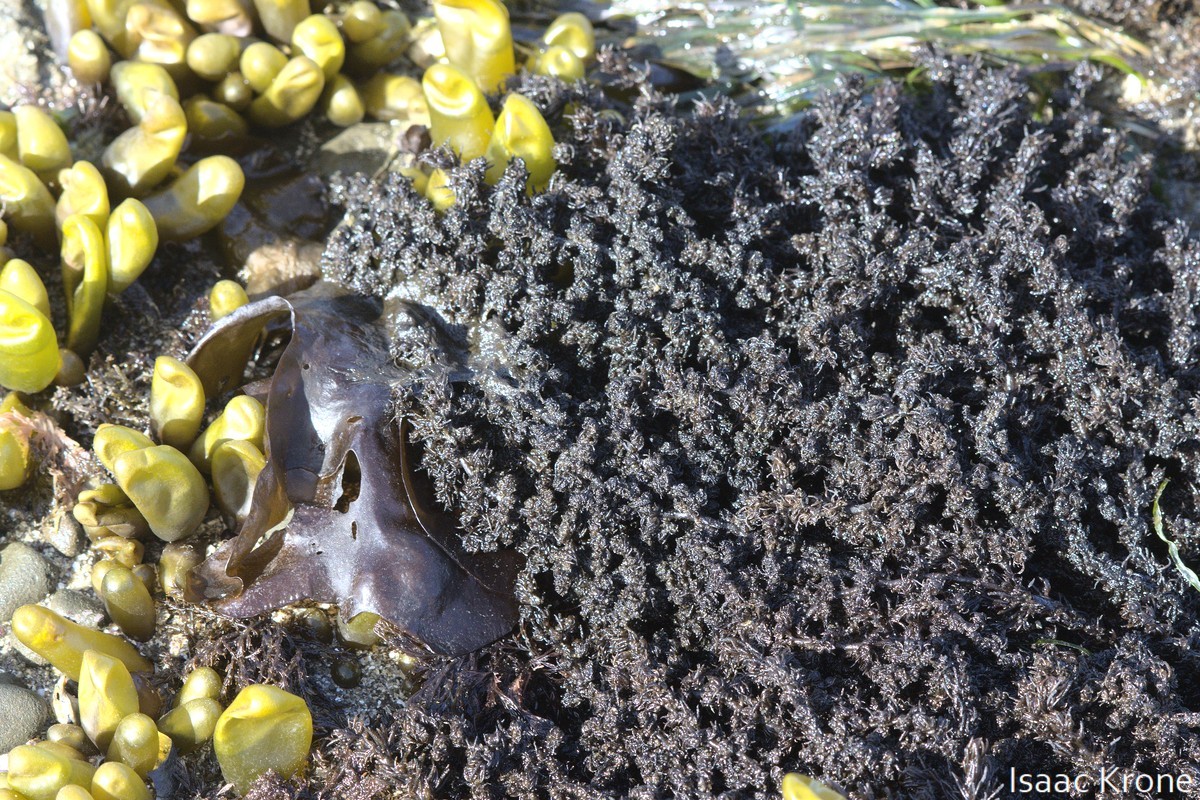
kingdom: Plantae
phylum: Rhodophyta
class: Florideophyceae
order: Ceramiales
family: Rhodomelaceae
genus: Neorhodomela
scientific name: Neorhodomela larix
